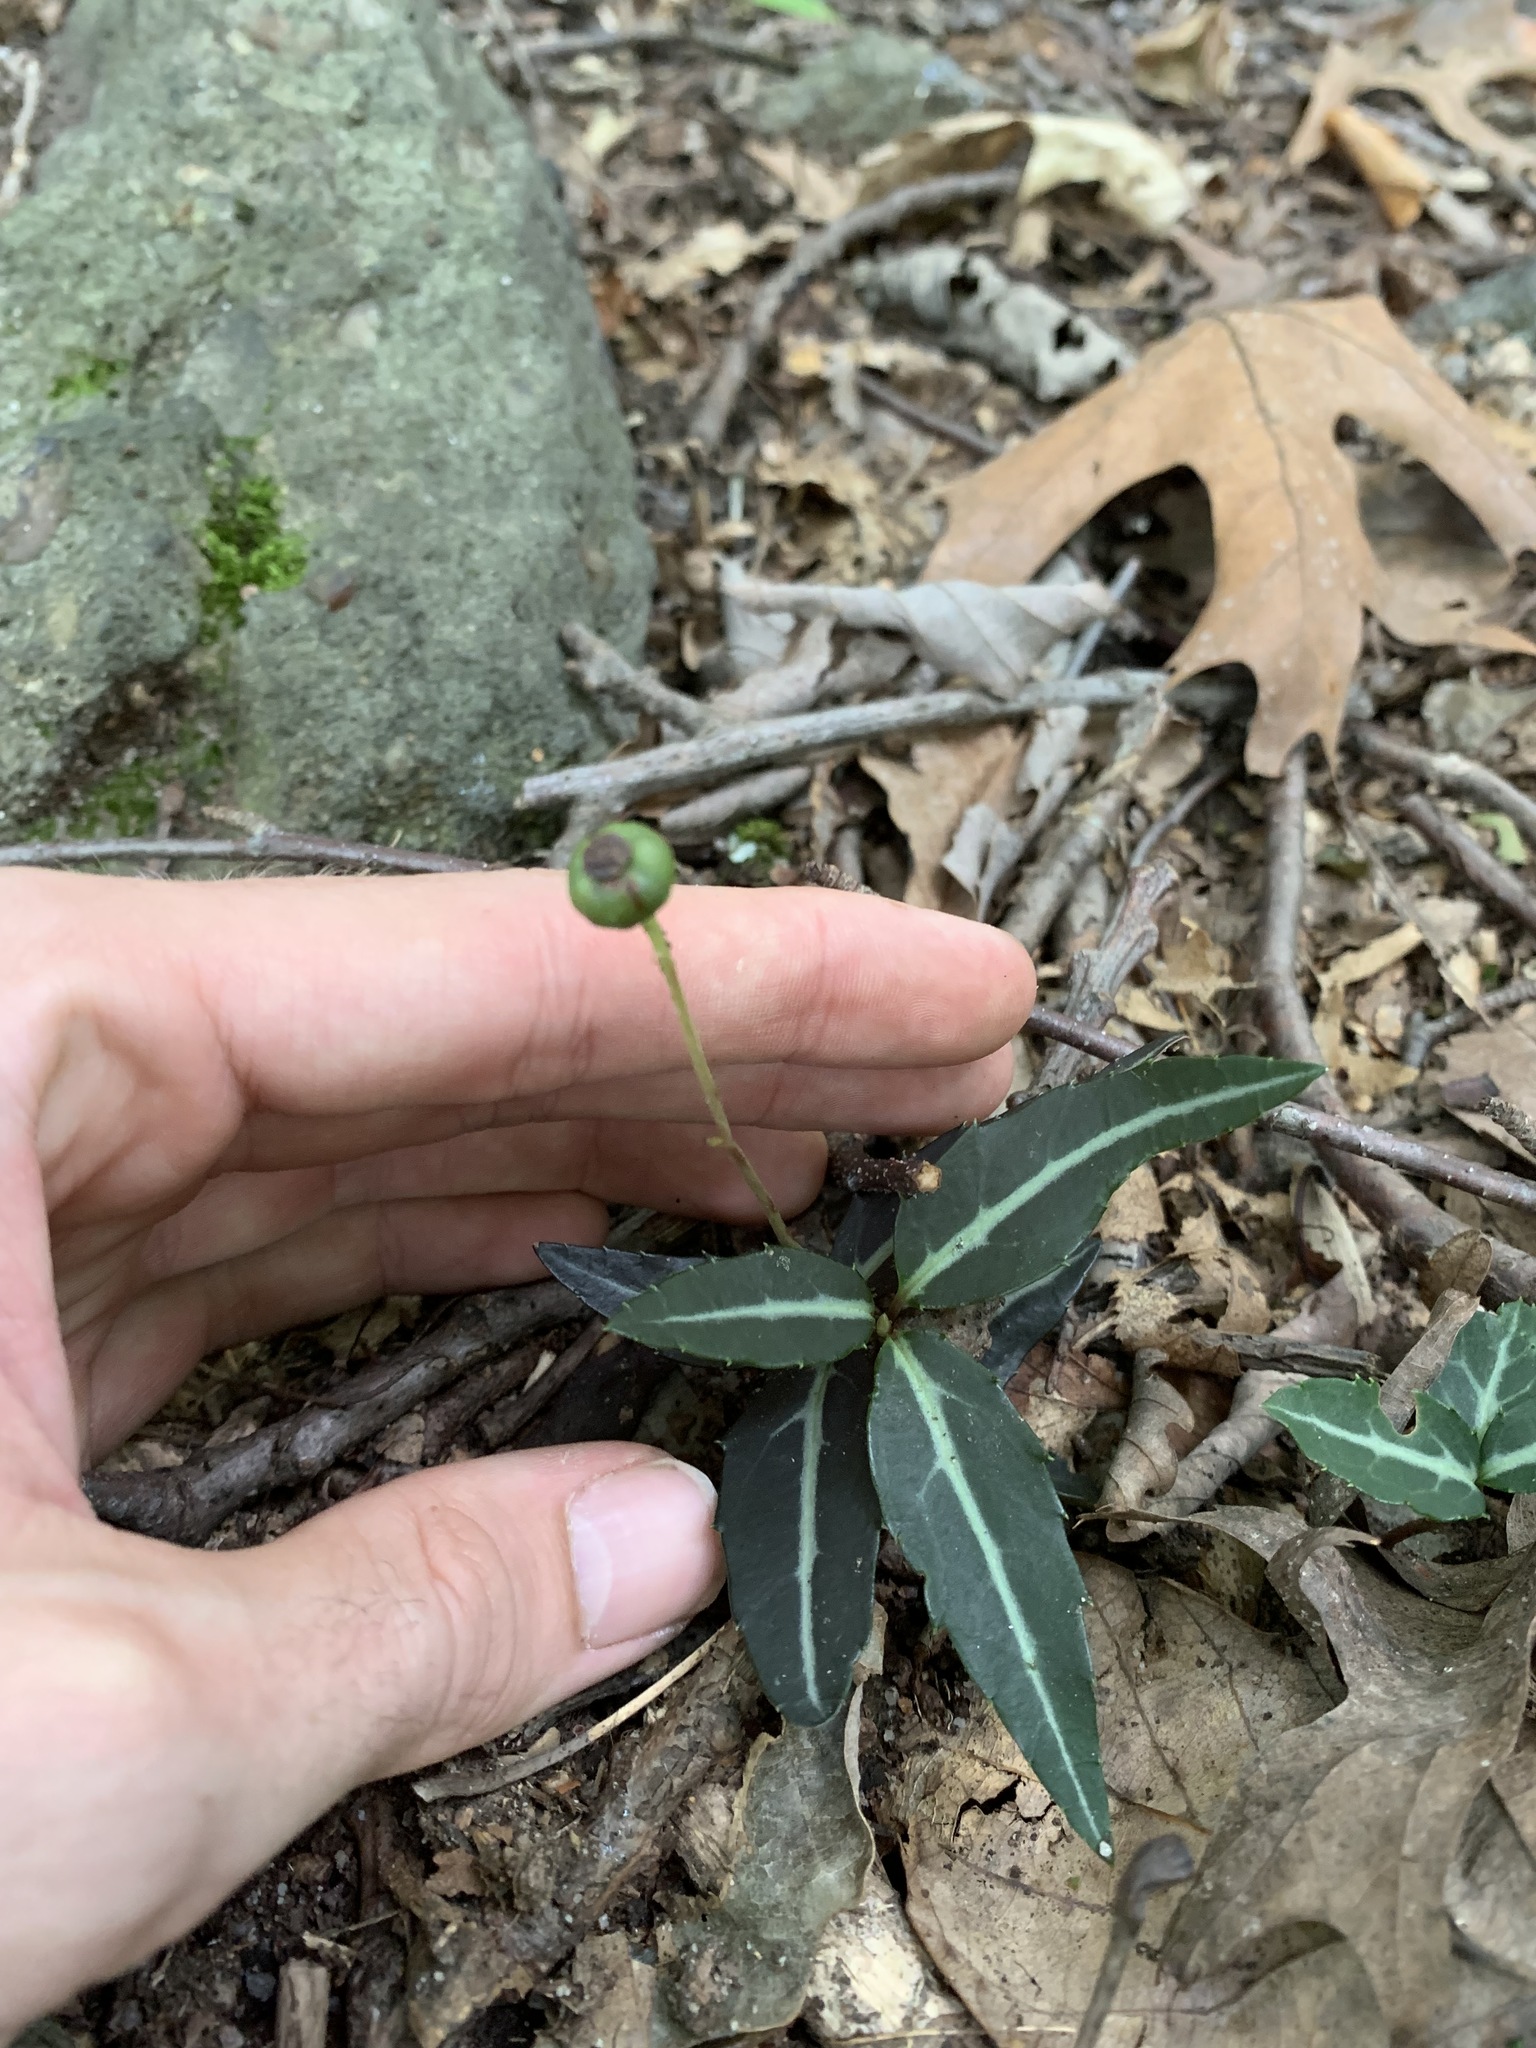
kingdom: Plantae
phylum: Tracheophyta
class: Magnoliopsida
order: Ericales
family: Ericaceae
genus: Chimaphila
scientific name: Chimaphila maculata
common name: Spotted pipsissewa
